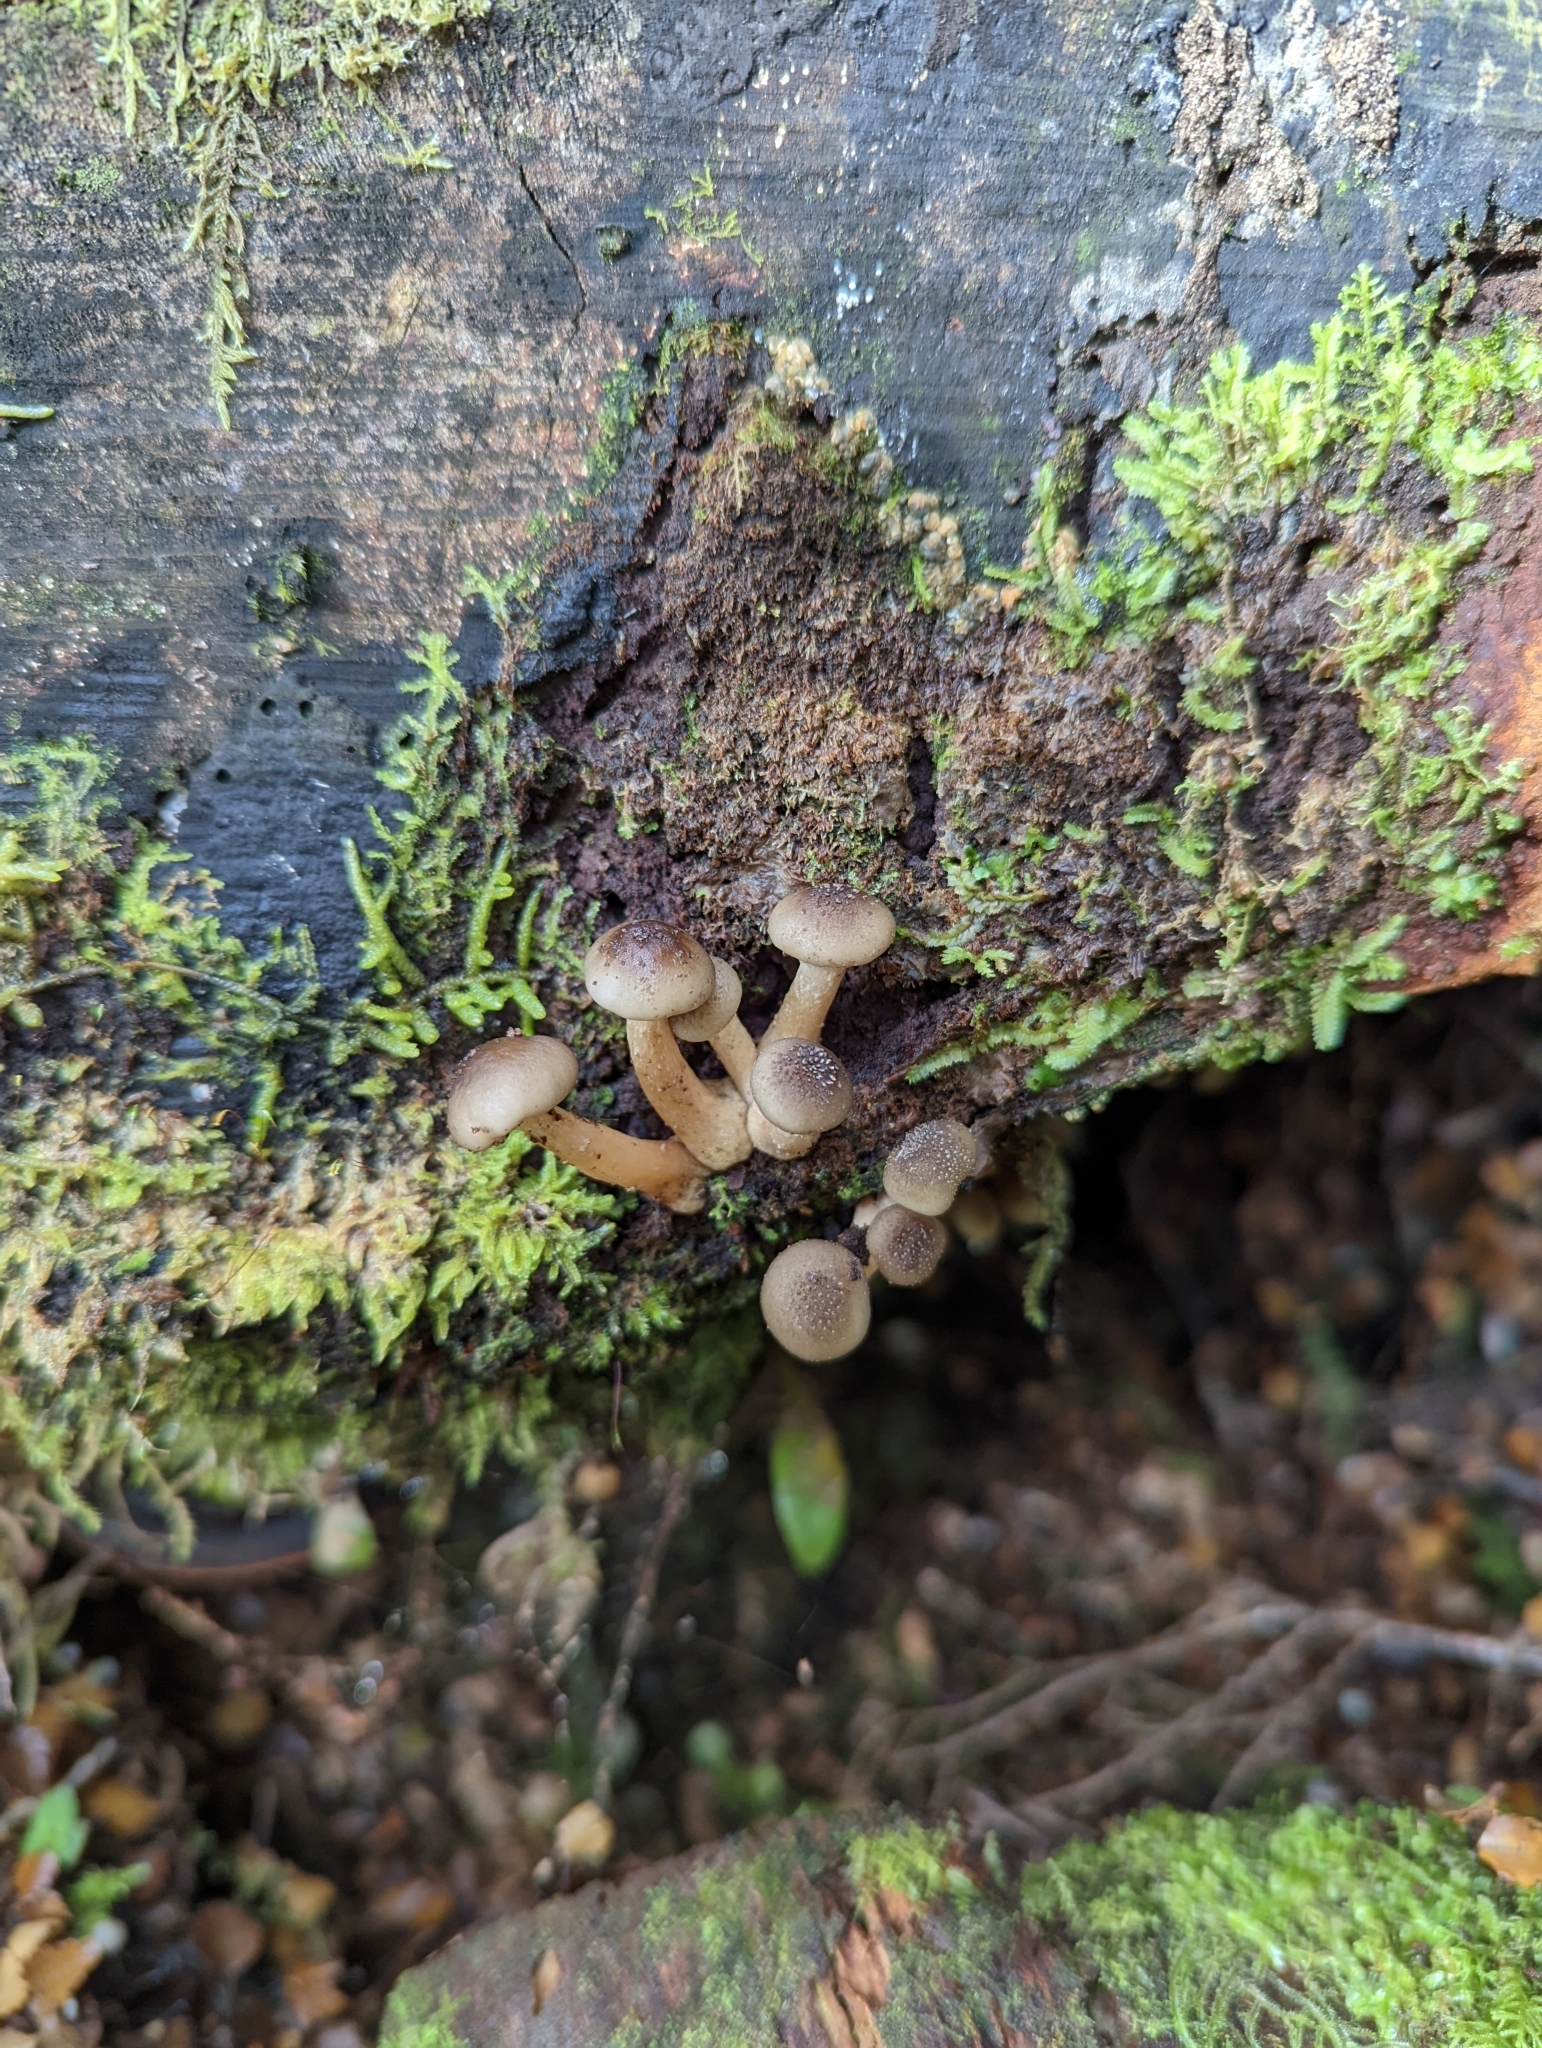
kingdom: Fungi
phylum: Basidiomycota
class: Agaricomycetes
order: Agaricales
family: Physalacriaceae
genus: Armillaria
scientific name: Armillaria novae-zelandiae
